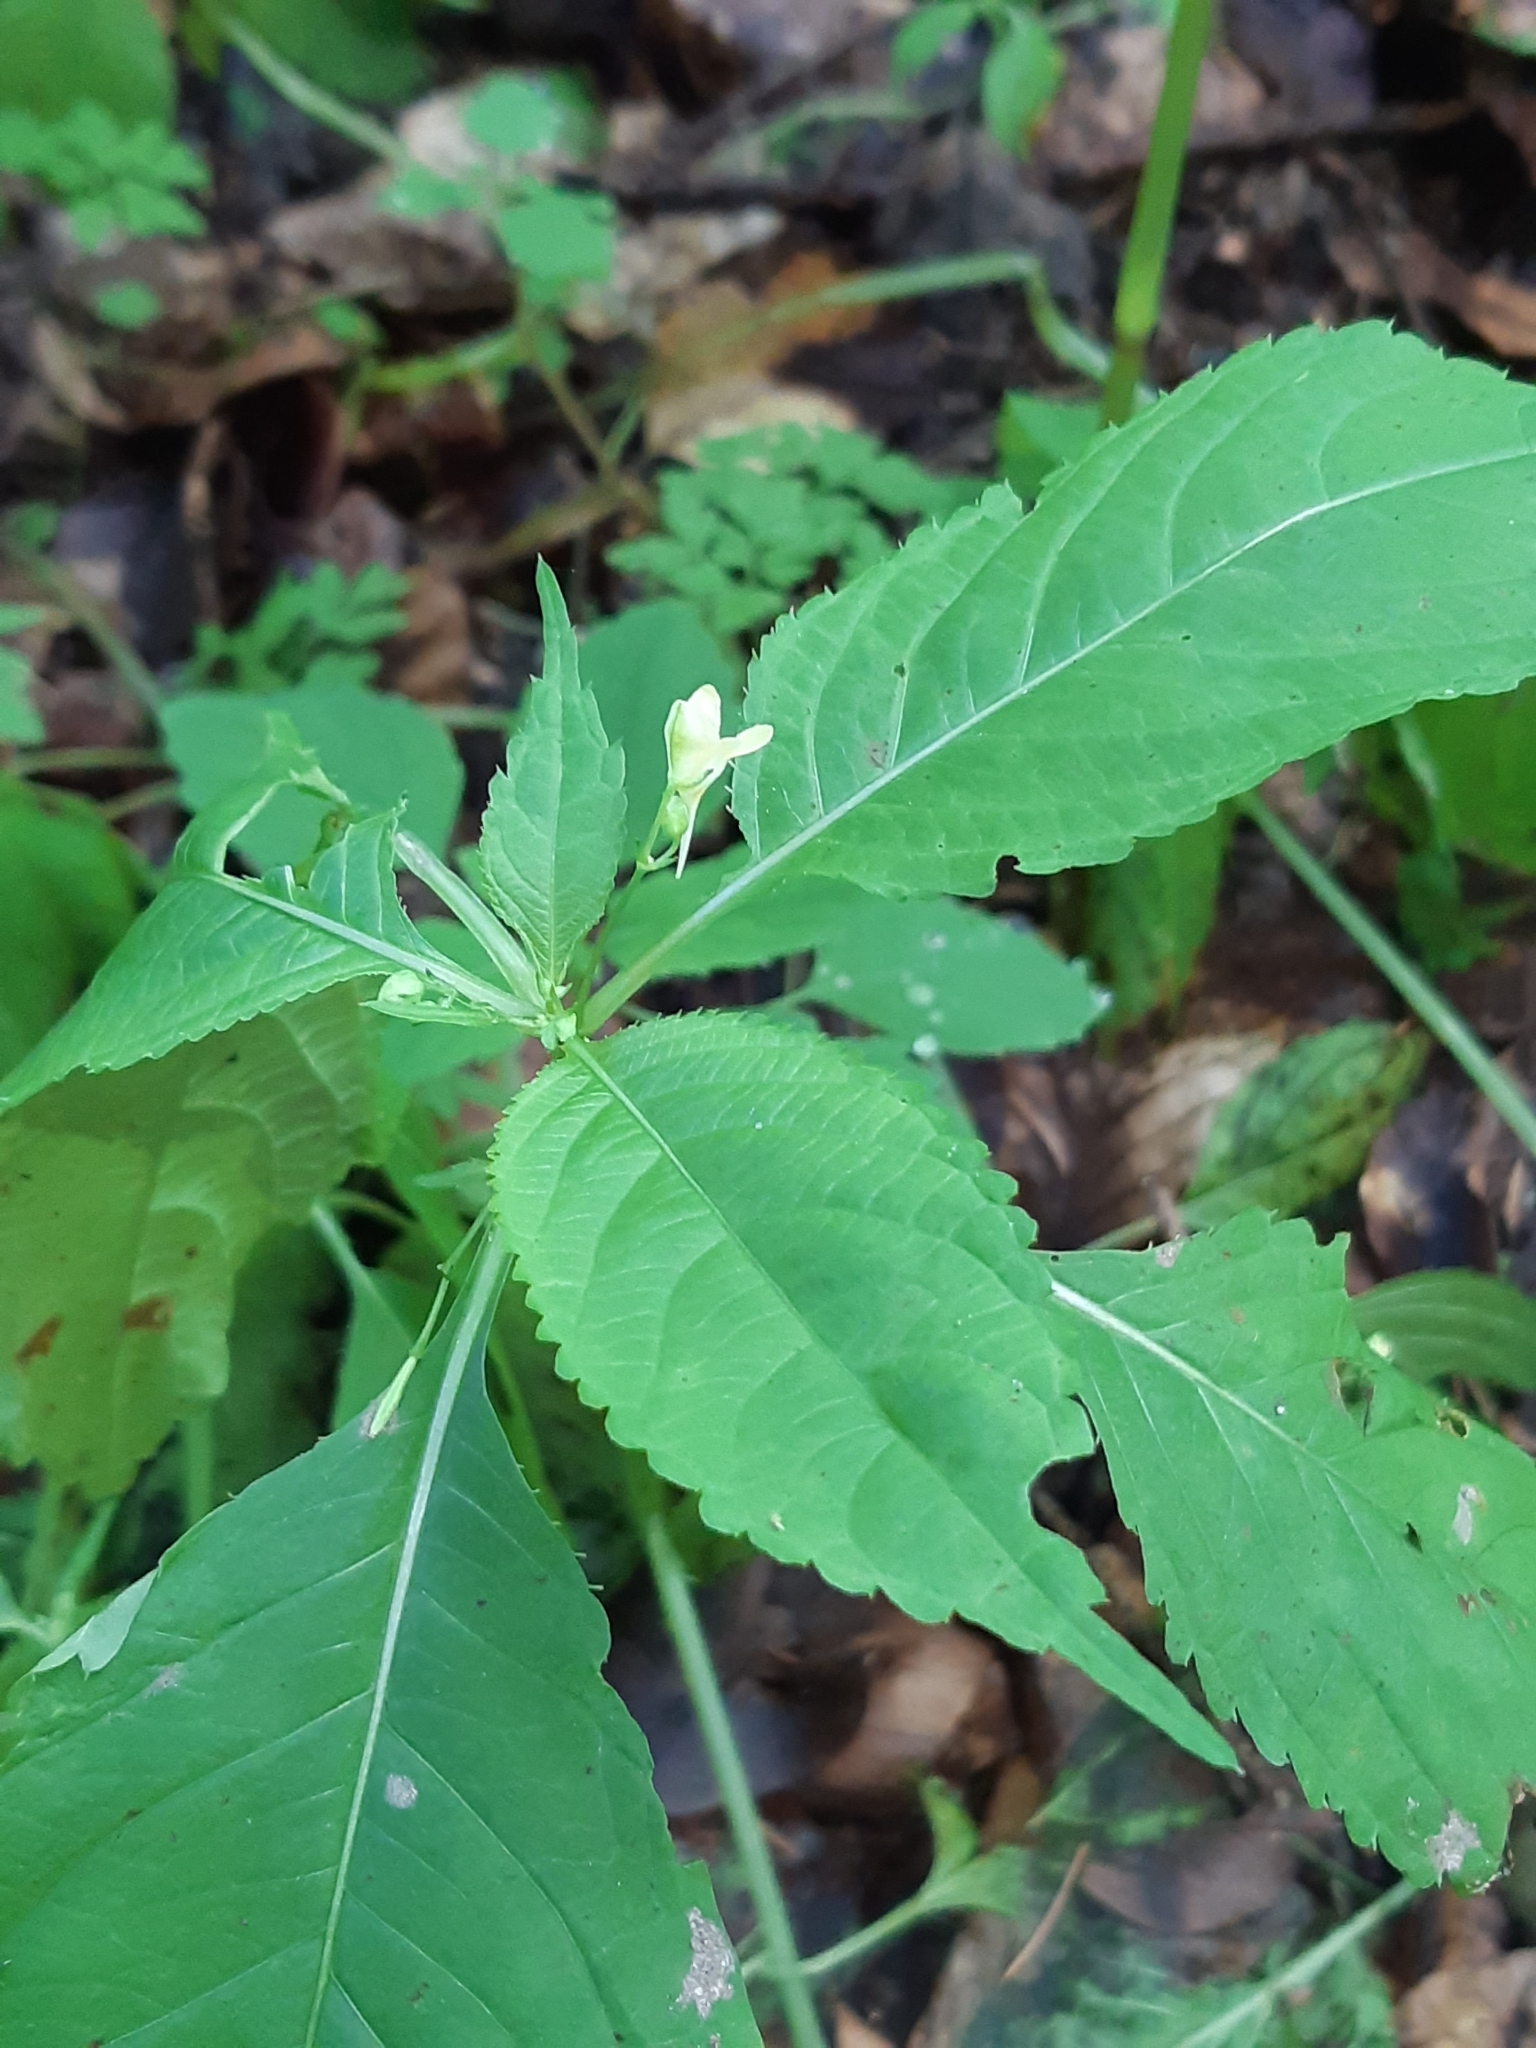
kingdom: Plantae
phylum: Tracheophyta
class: Magnoliopsida
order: Ericales
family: Balsaminaceae
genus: Impatiens
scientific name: Impatiens parviflora
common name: Small balsam
